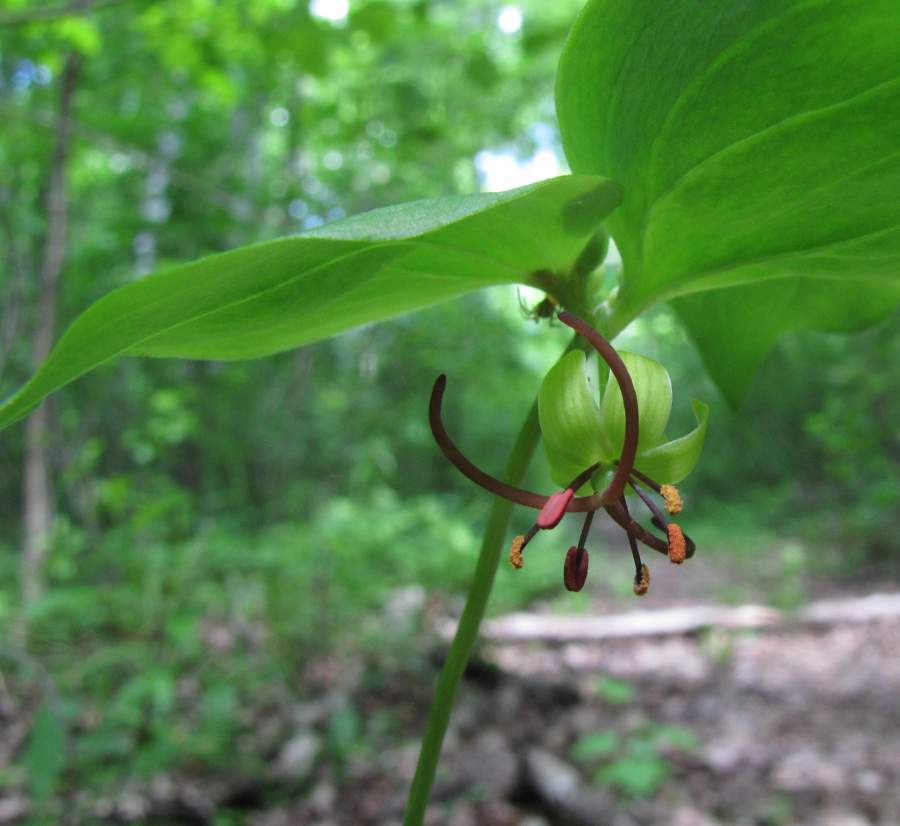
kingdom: Plantae
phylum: Tracheophyta
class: Liliopsida
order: Liliales
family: Liliaceae
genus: Medeola
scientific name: Medeola virginiana
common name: Indian cucumber-root
